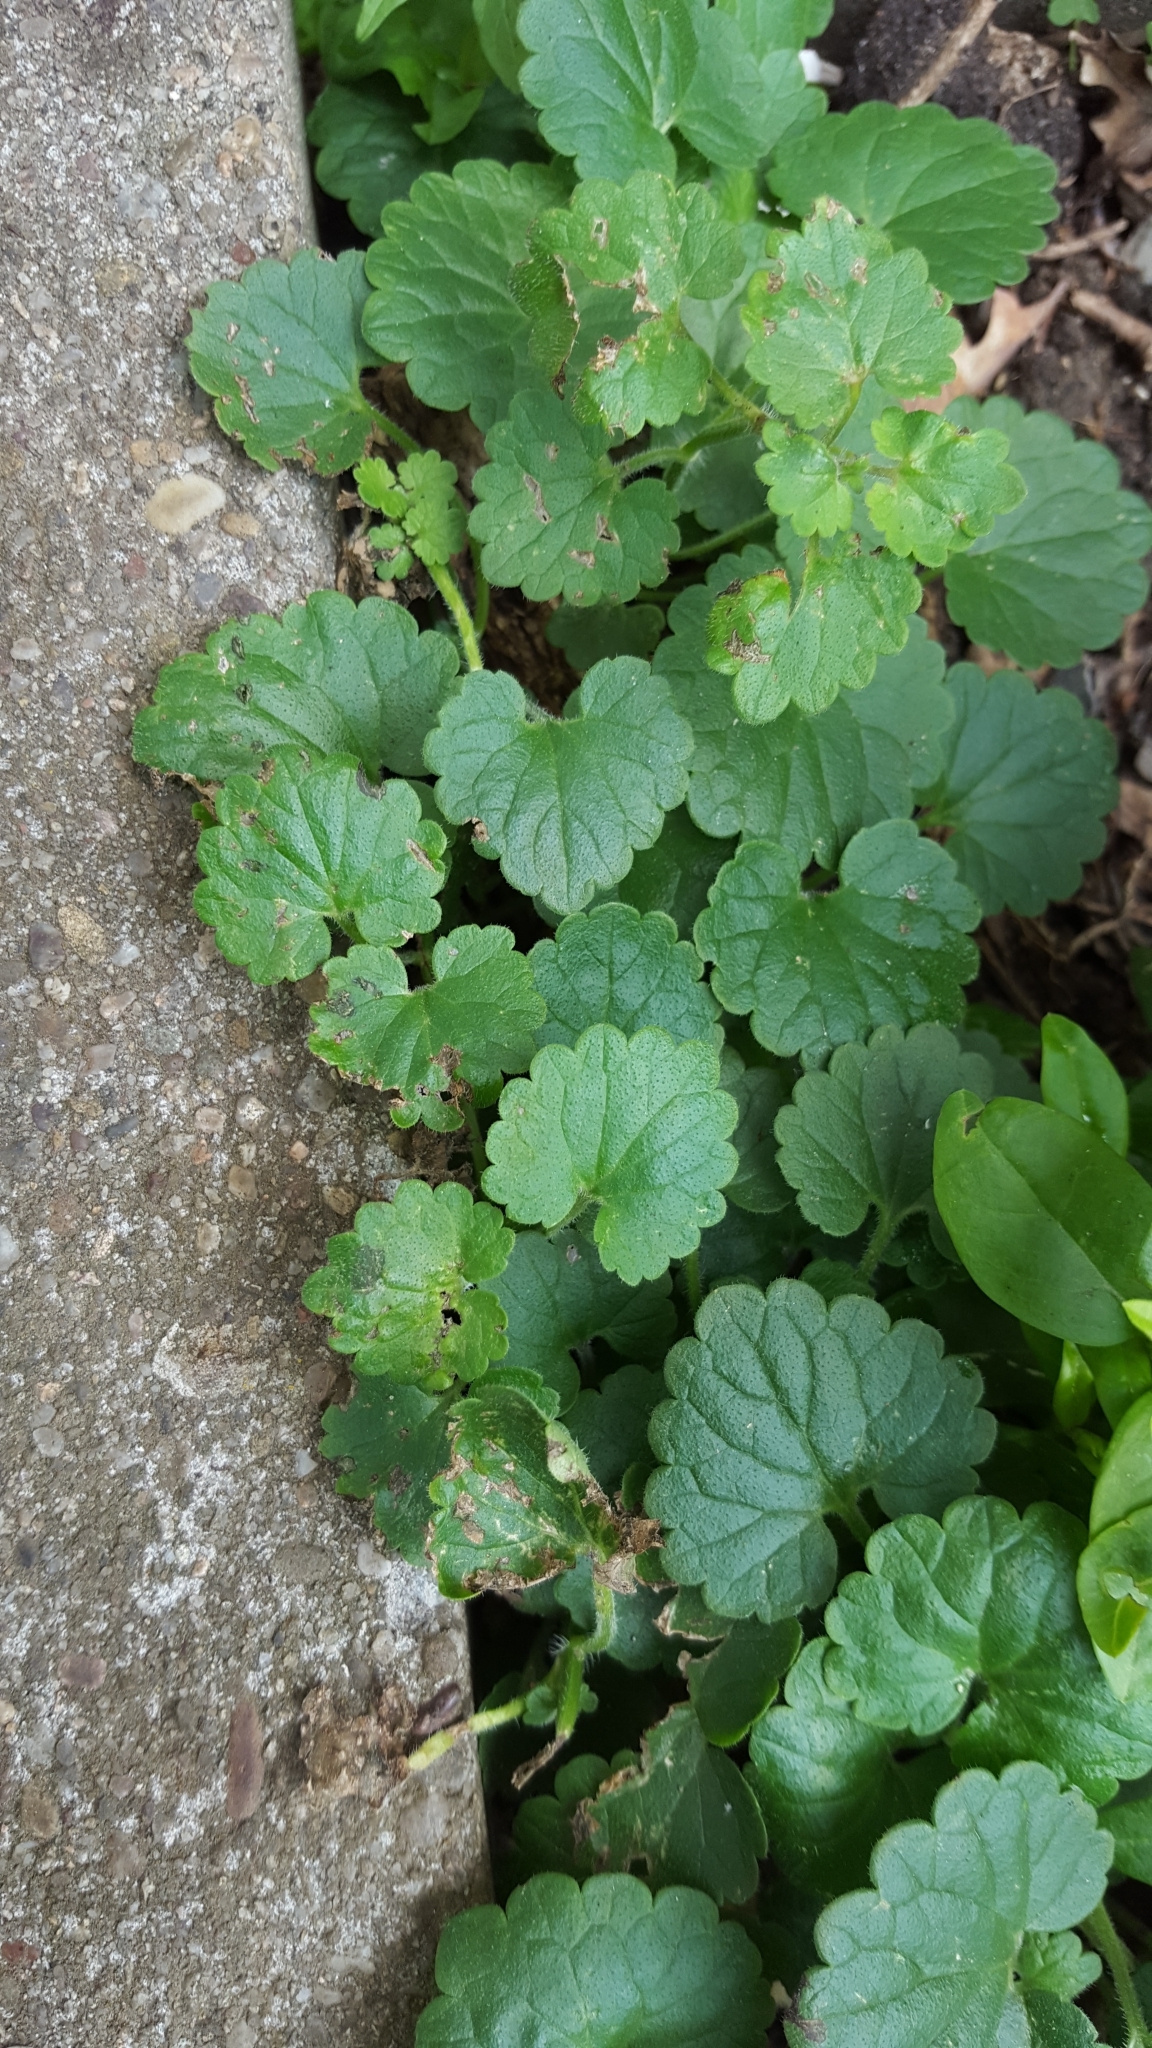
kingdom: Plantae
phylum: Tracheophyta
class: Magnoliopsida
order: Lamiales
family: Lamiaceae
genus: Glechoma
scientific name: Glechoma hederacea
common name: Ground ivy
